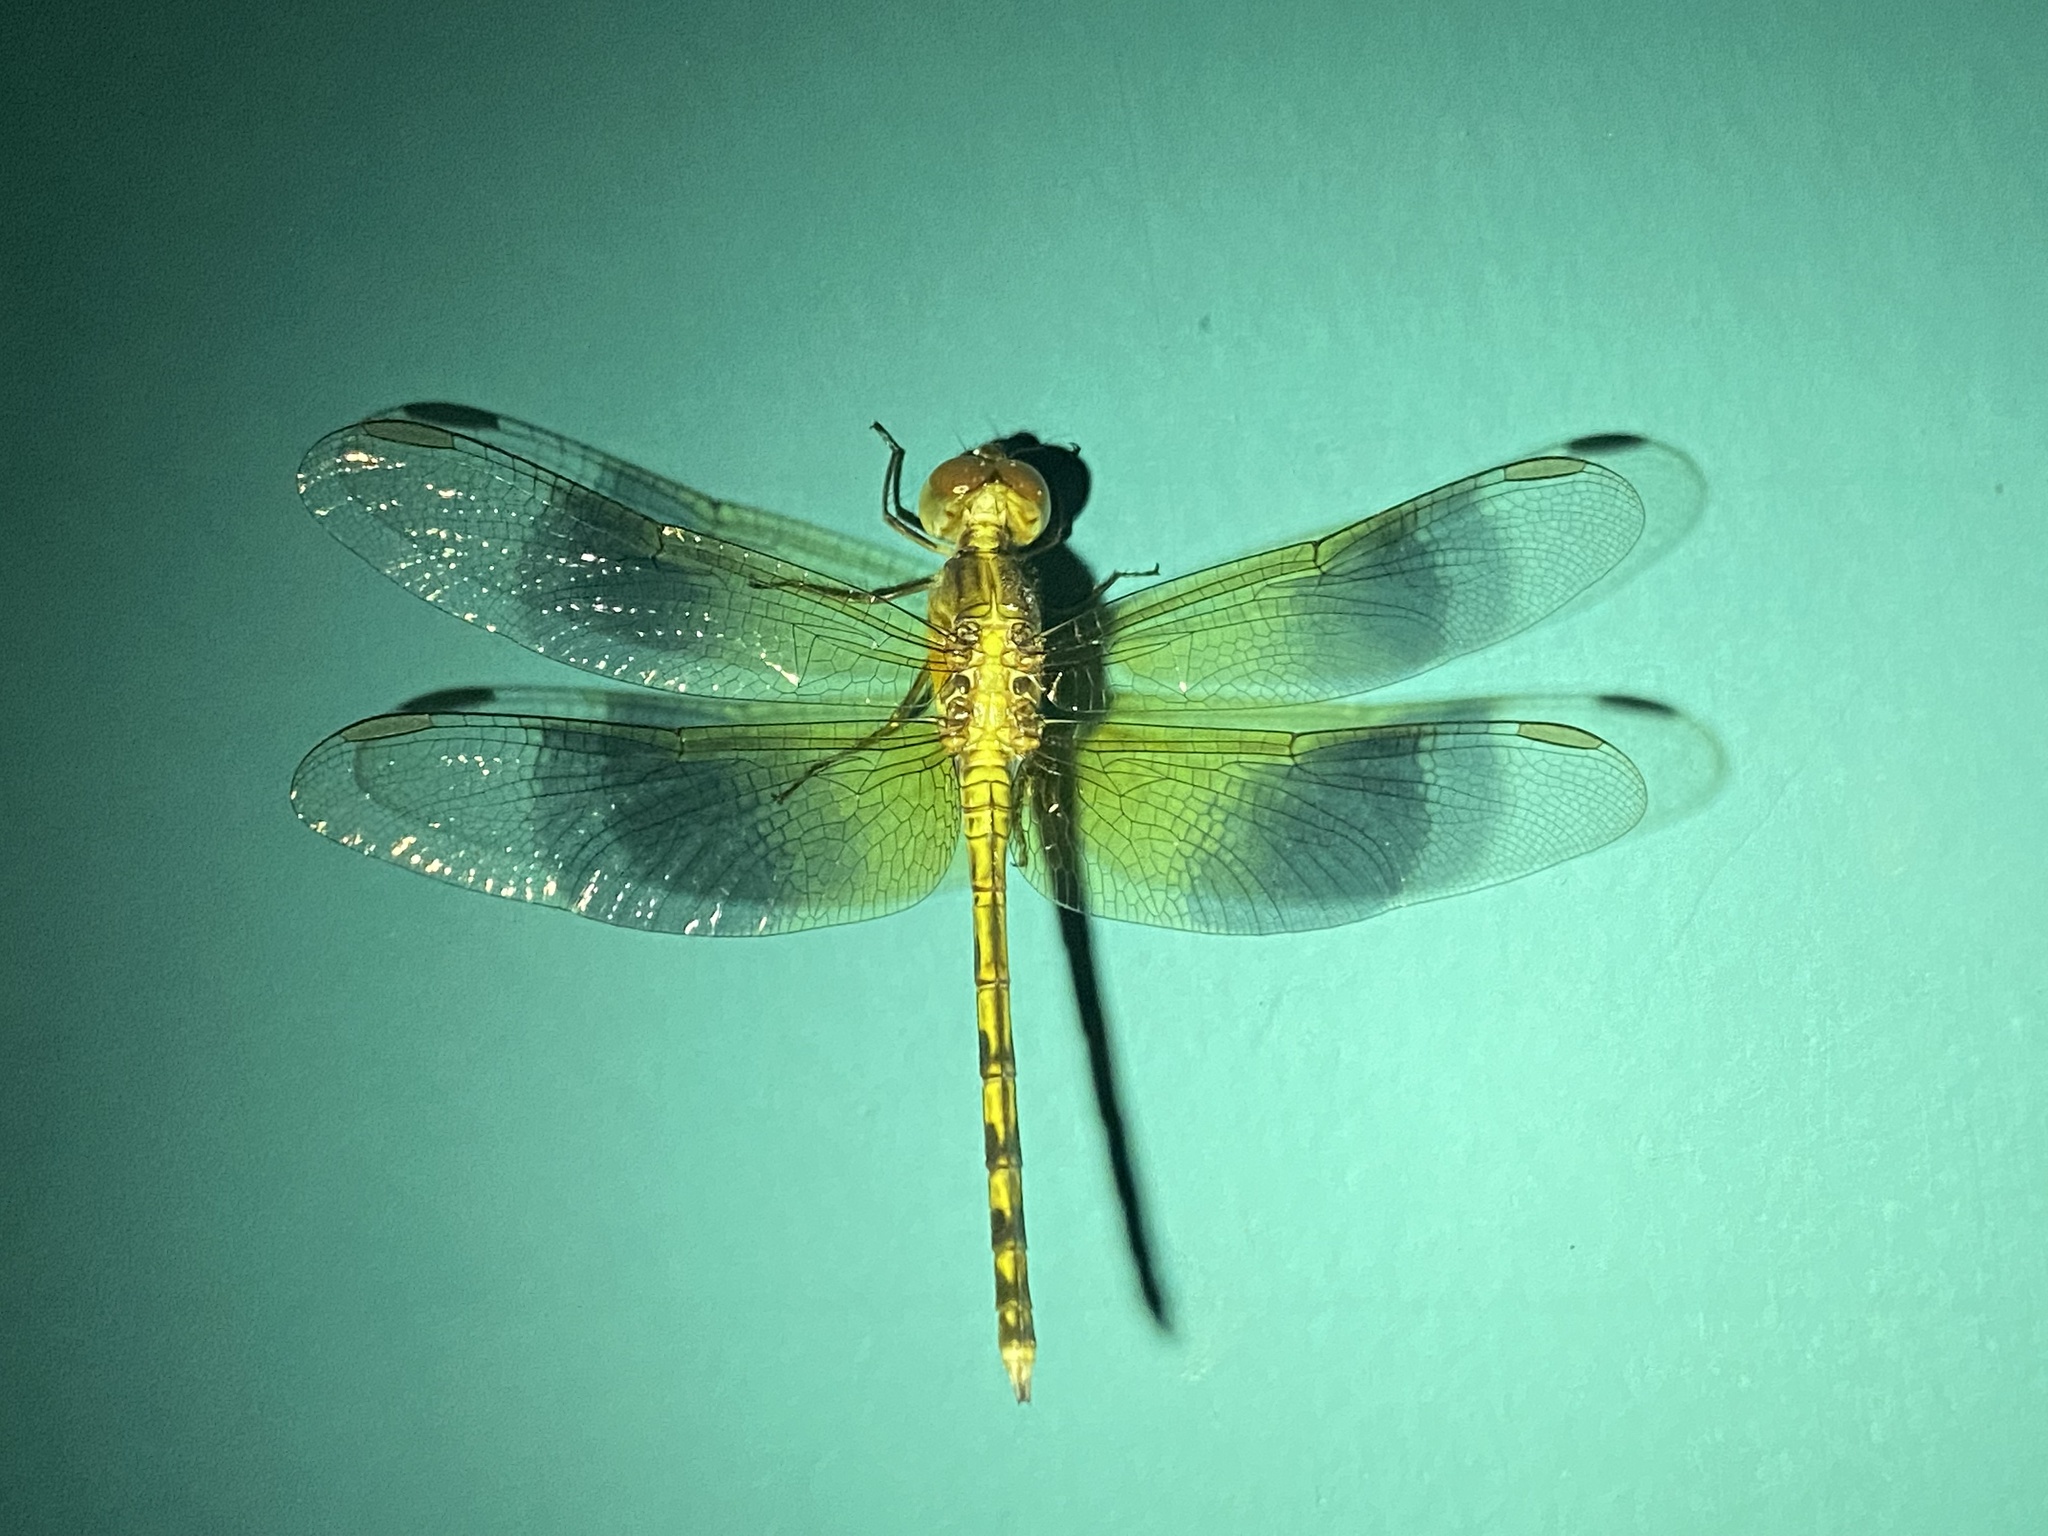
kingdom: Animalia
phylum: Arthropoda
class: Insecta
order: Odonata
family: Libellulidae
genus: Erythrodiplax
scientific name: Erythrodiplax funerea
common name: Black-winged dragonlet
